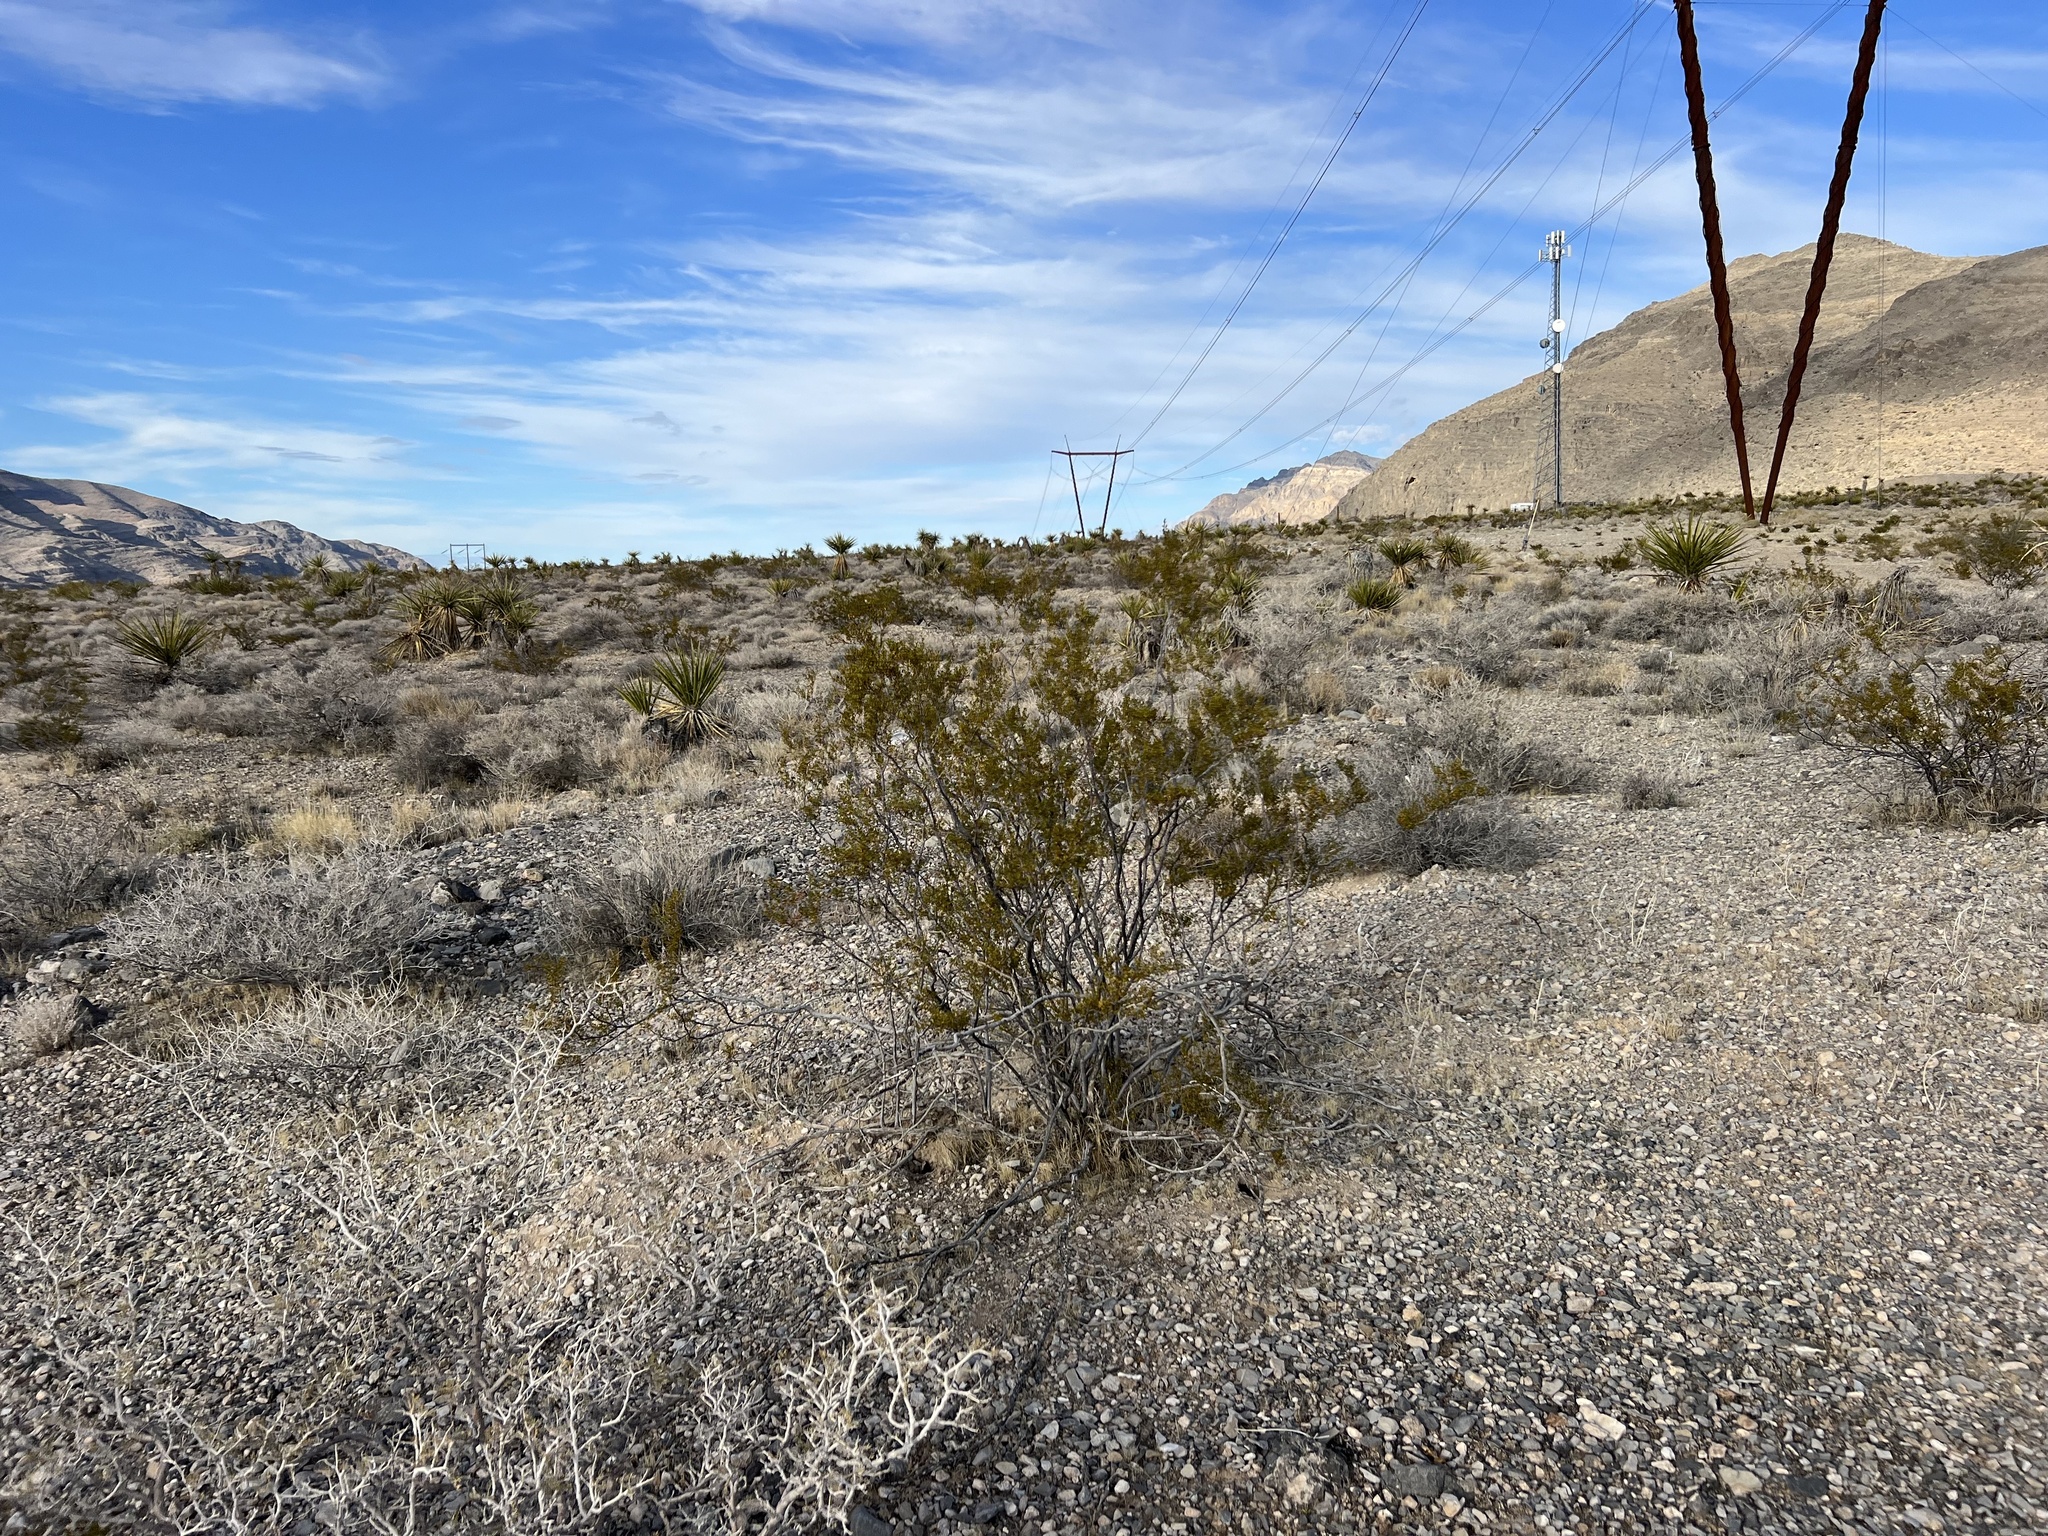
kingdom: Plantae
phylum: Tracheophyta
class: Magnoliopsida
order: Zygophyllales
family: Zygophyllaceae
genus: Larrea
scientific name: Larrea tridentata
